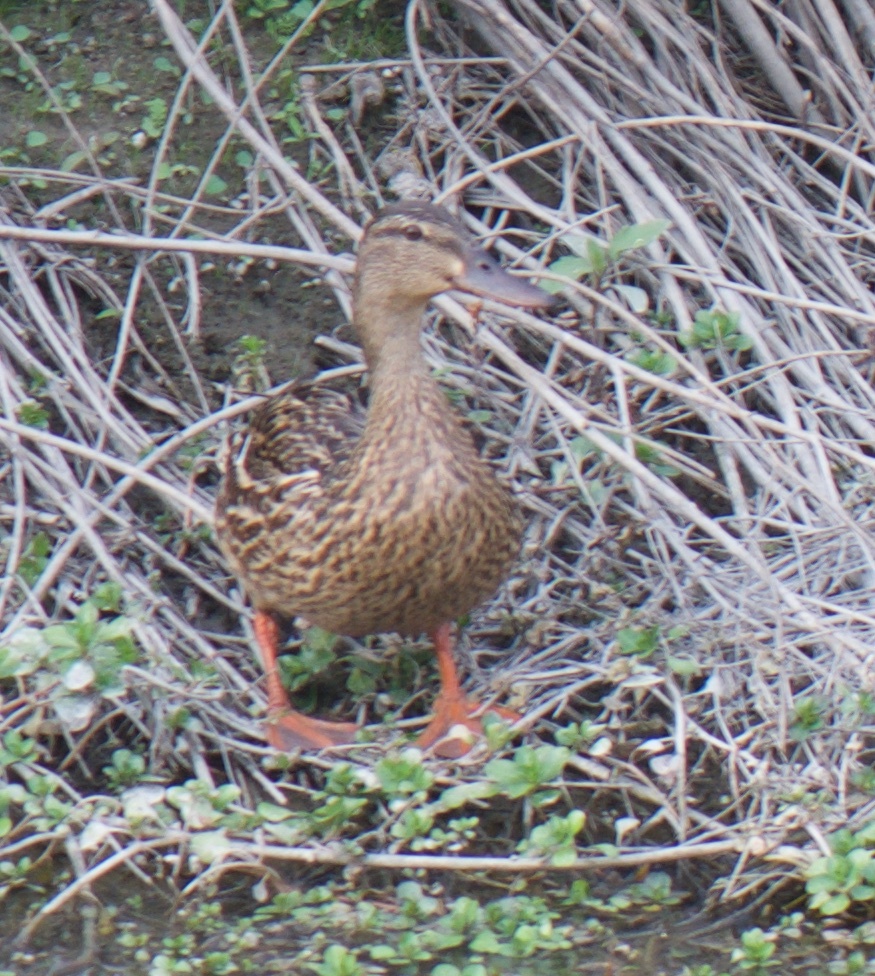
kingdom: Animalia
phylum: Chordata
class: Aves
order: Anseriformes
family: Anatidae
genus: Anas
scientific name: Anas platyrhynchos
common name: Mallard
